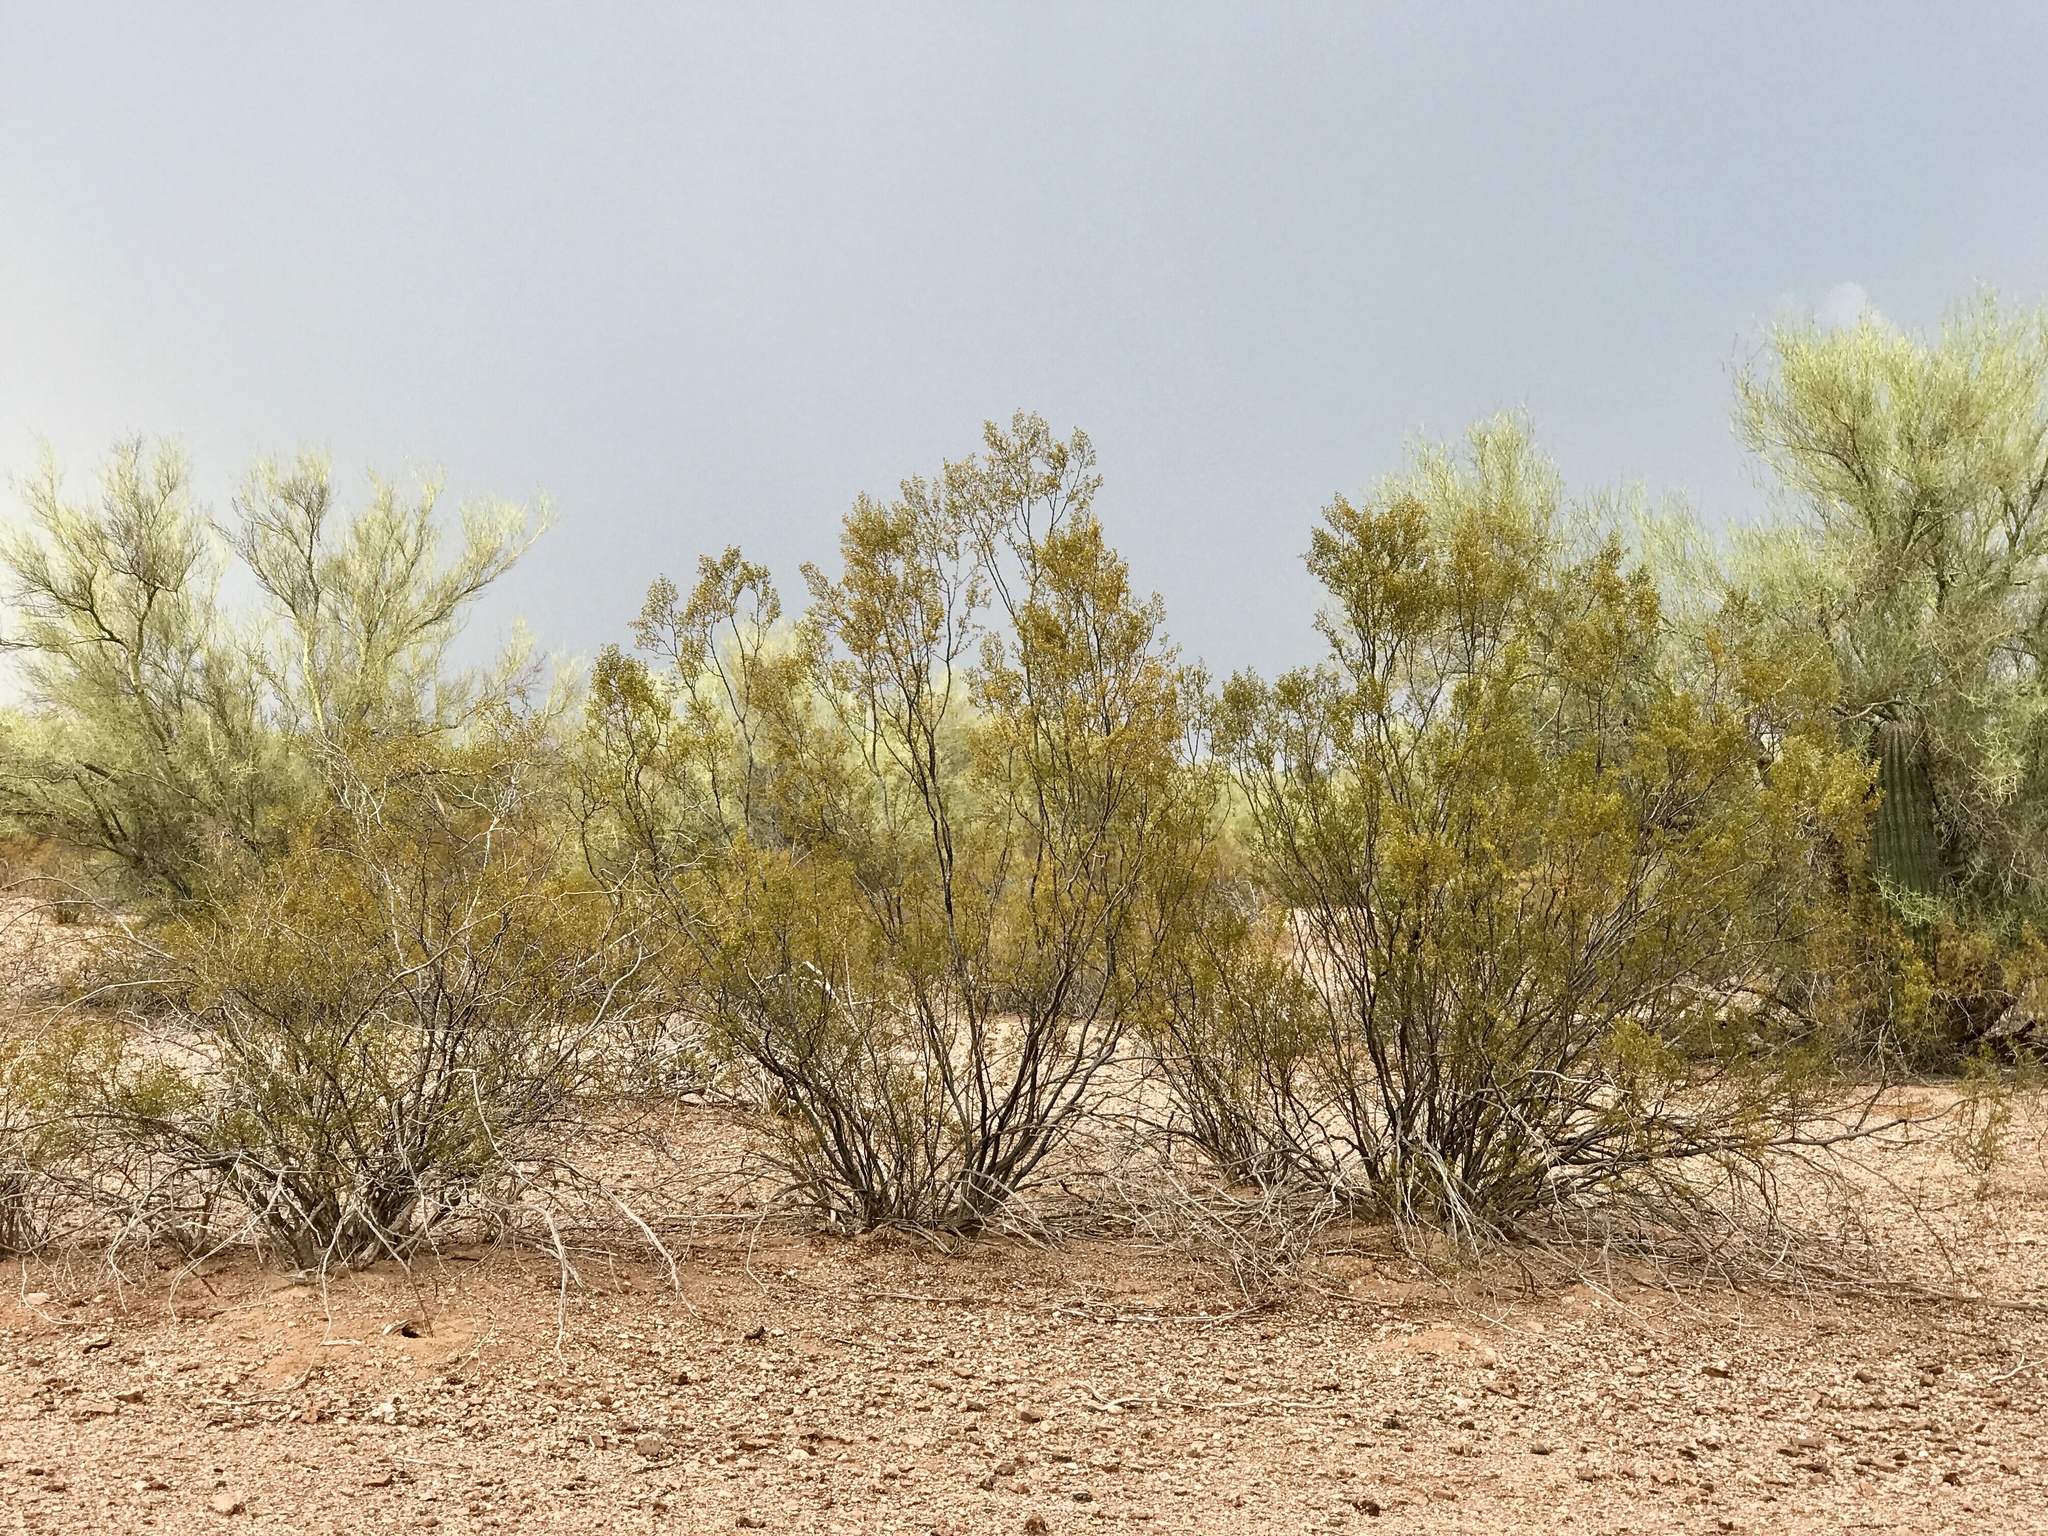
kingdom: Plantae
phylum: Tracheophyta
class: Magnoliopsida
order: Zygophyllales
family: Zygophyllaceae
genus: Larrea
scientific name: Larrea tridentata
